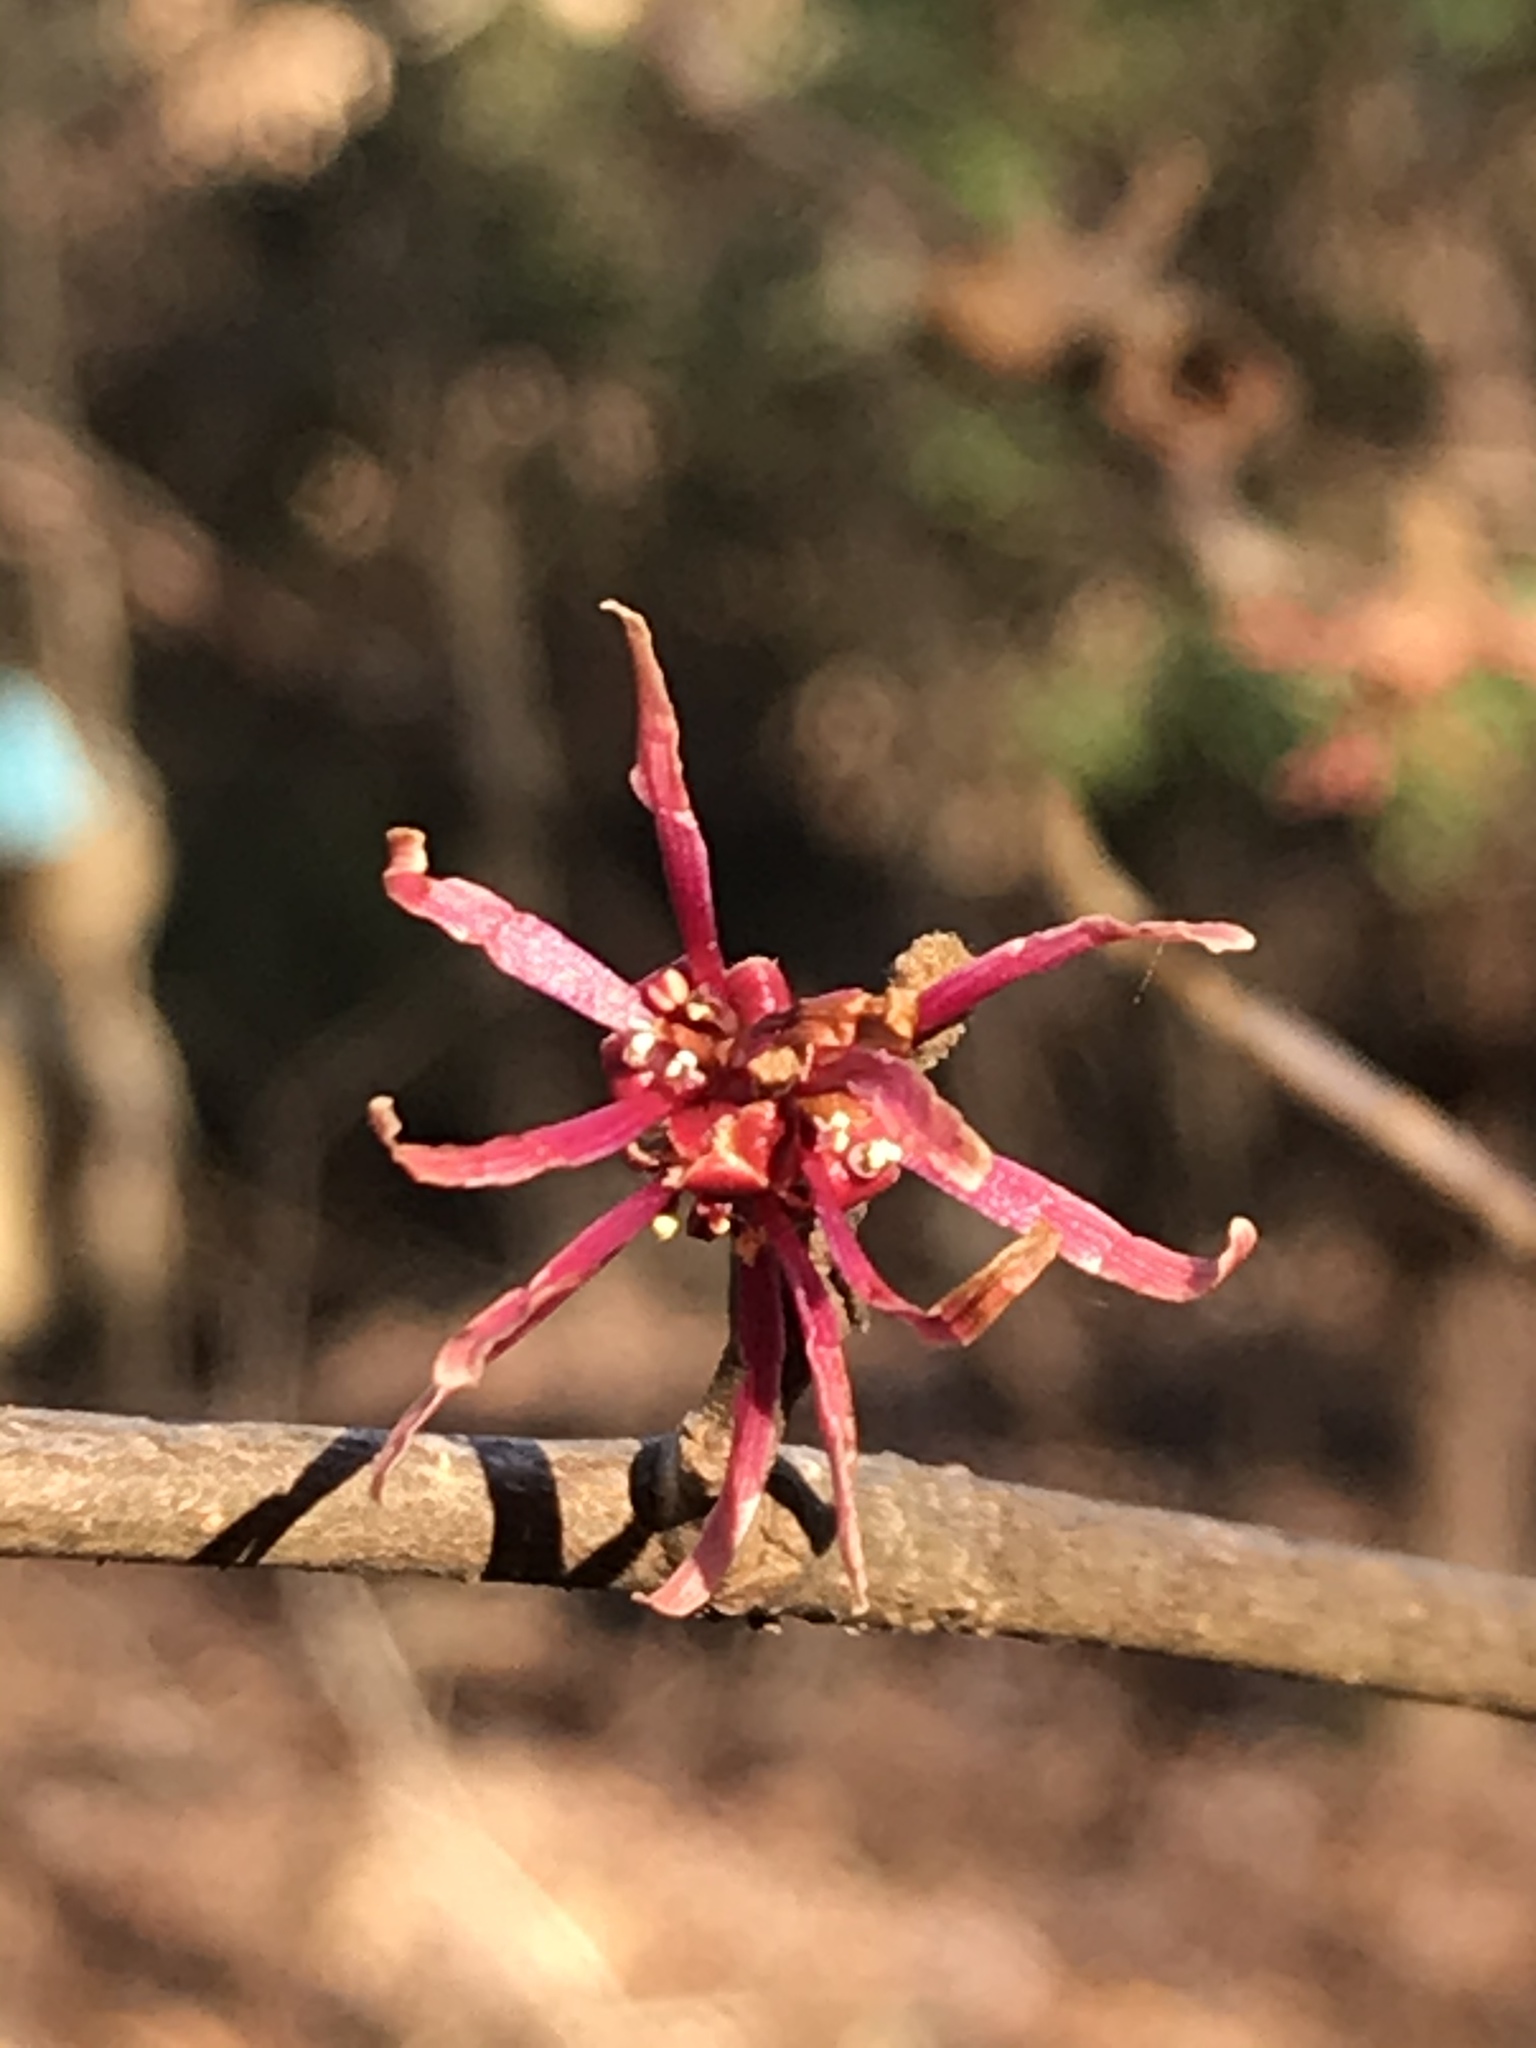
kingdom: Plantae
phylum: Tracheophyta
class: Magnoliopsida
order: Saxifragales
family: Hamamelidaceae
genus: Hamamelis
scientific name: Hamamelis ovalis
